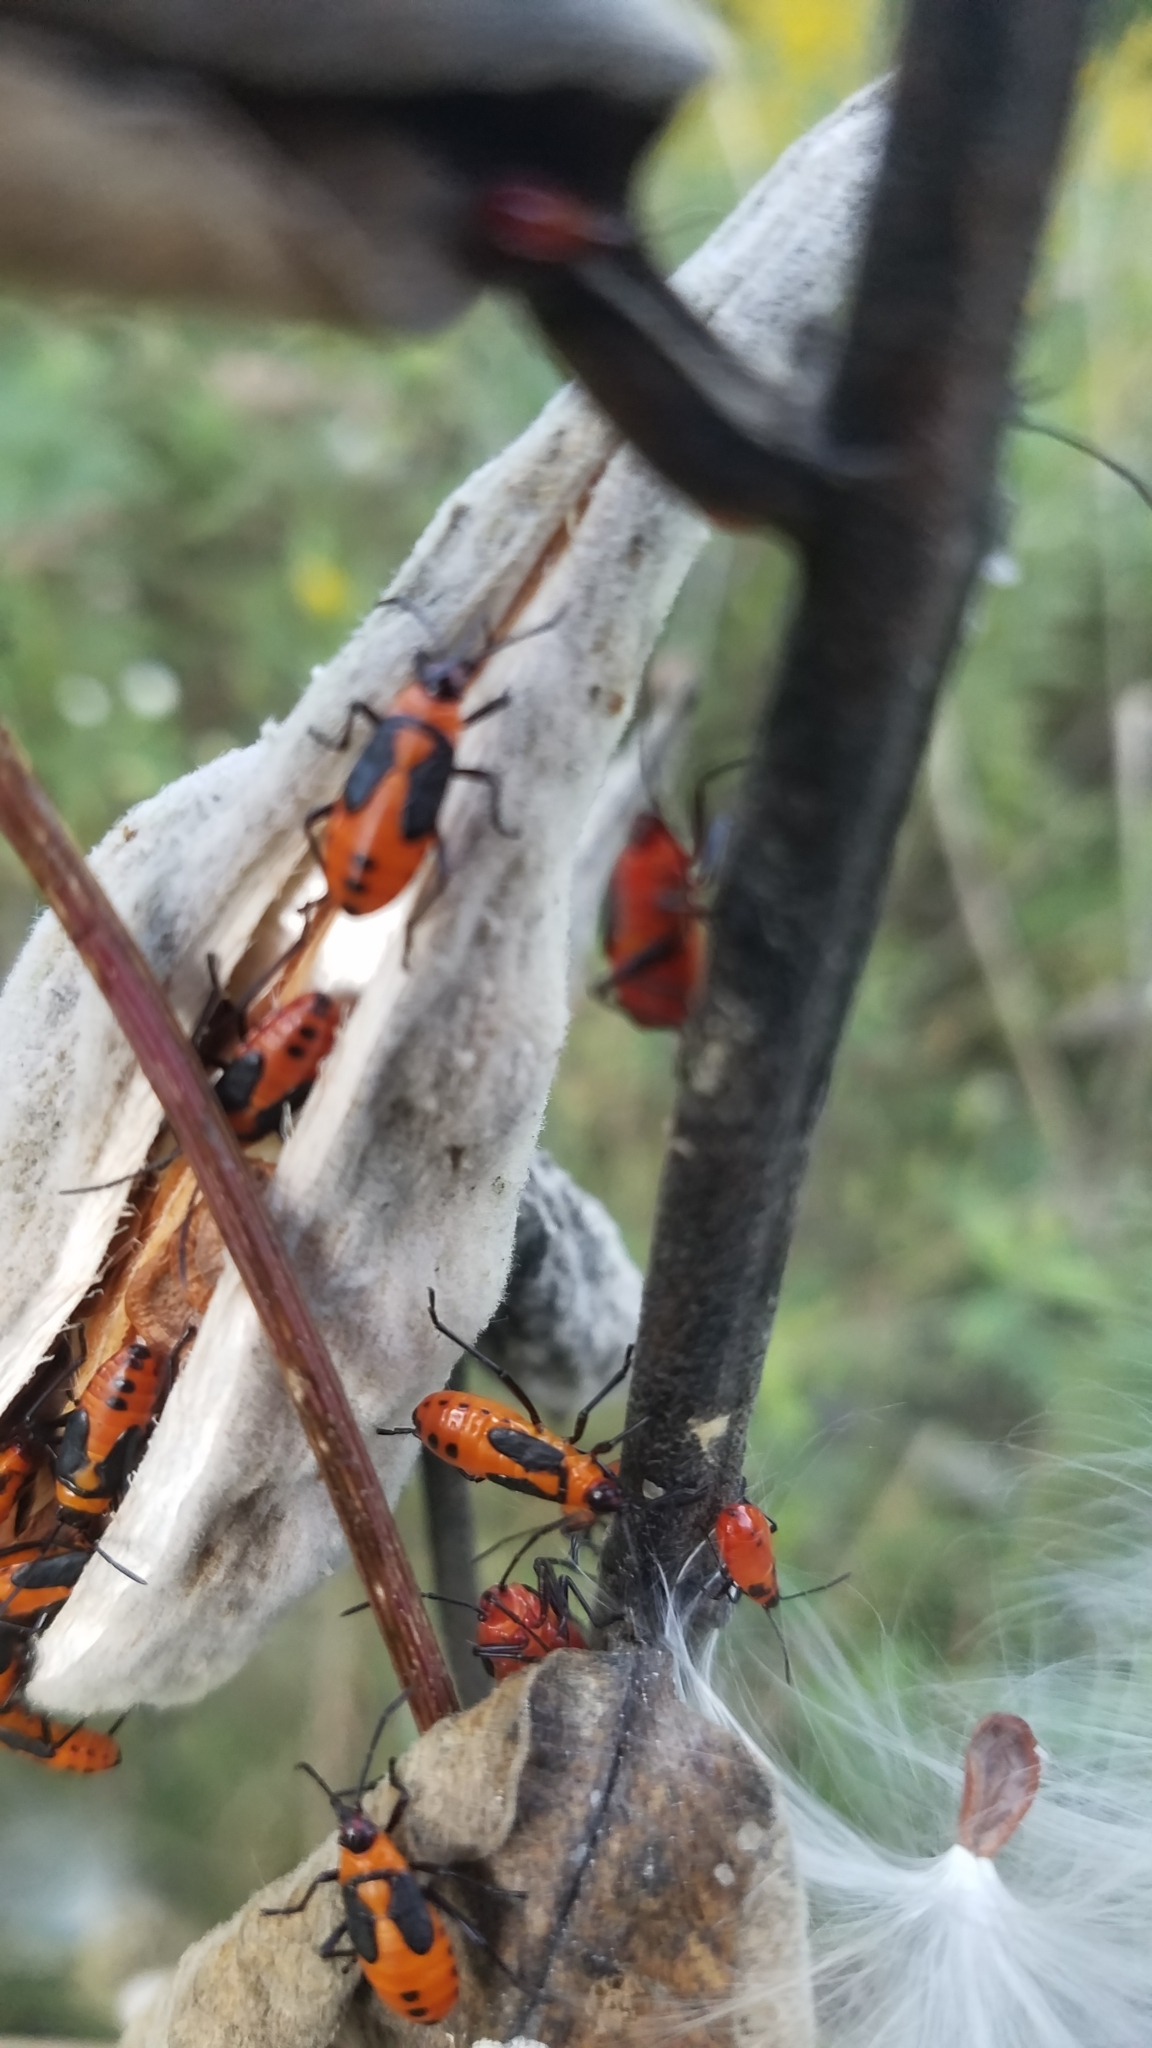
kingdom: Animalia
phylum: Arthropoda
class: Insecta
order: Hemiptera
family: Lygaeidae
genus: Oncopeltus
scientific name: Oncopeltus fasciatus
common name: Large milkweed bug
